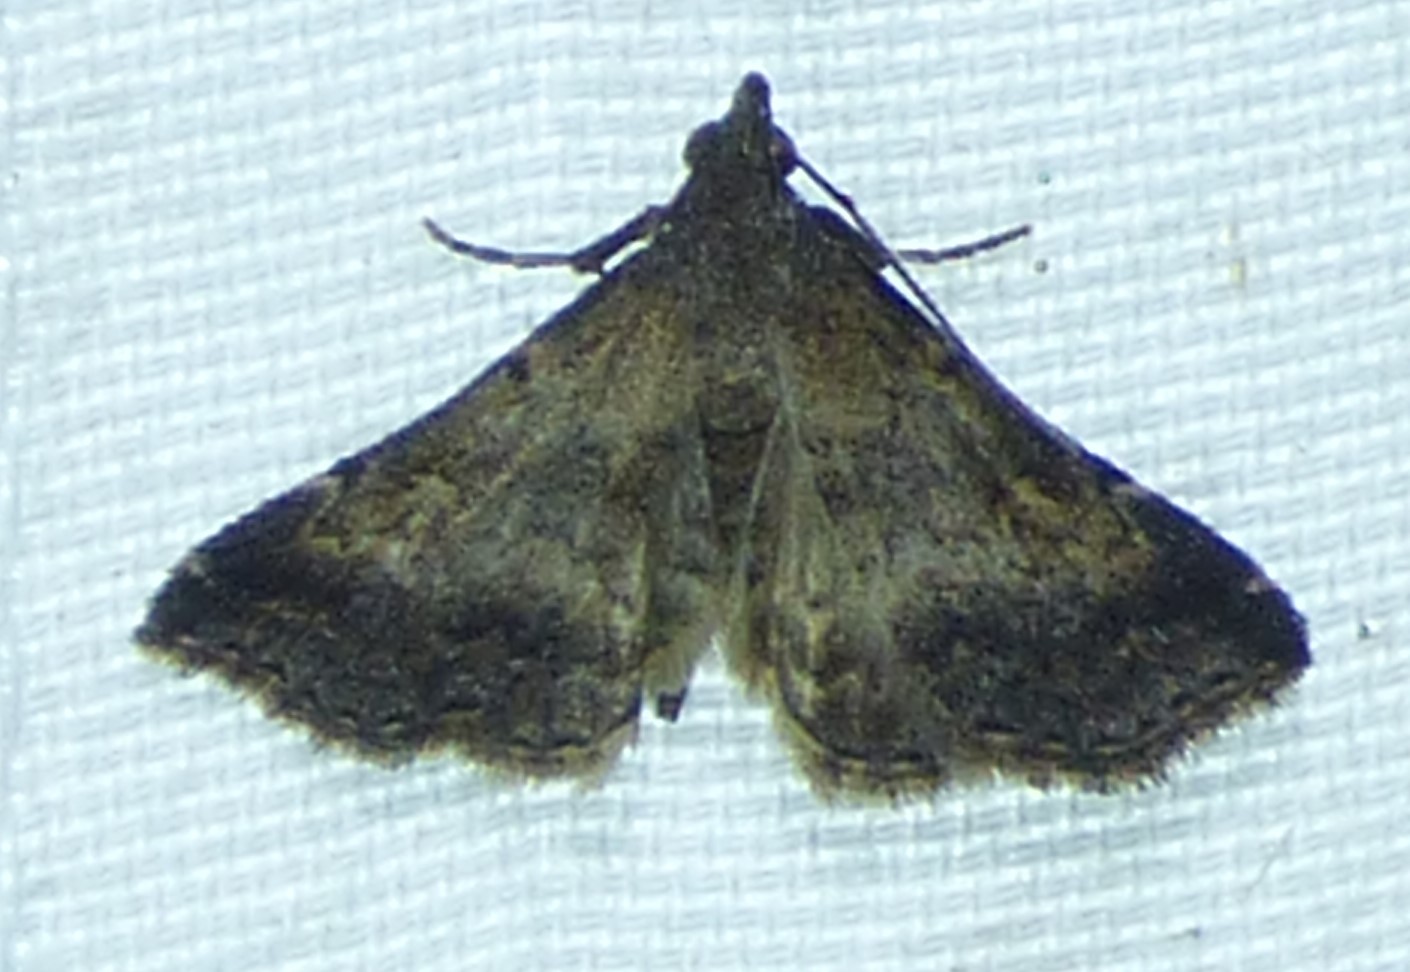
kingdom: Animalia
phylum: Arthropoda
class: Insecta
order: Lepidoptera
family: Erebidae
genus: Tetanolita
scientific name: Tetanolita floridana
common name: Florida tetanolita moth
